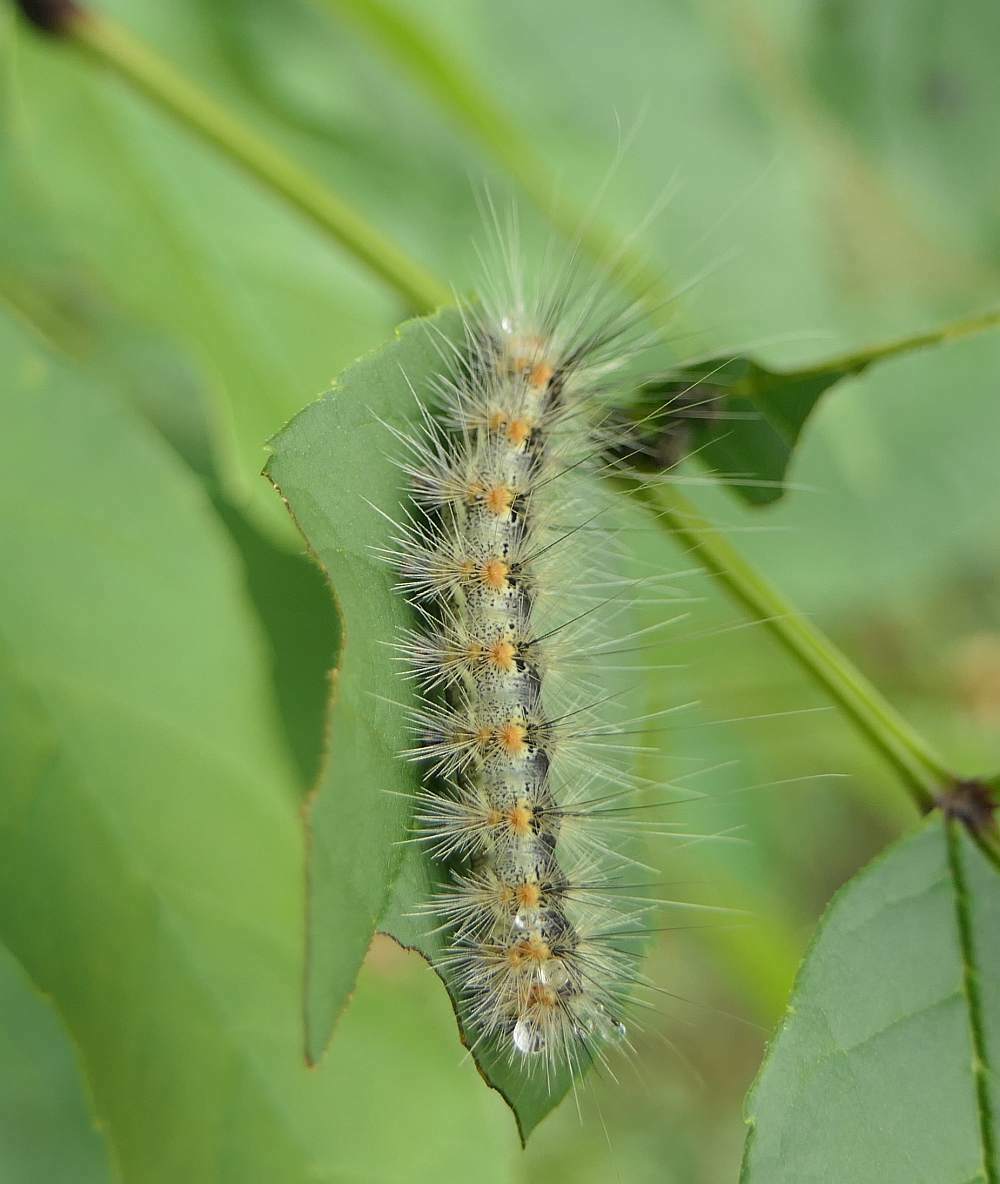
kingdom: Animalia
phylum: Arthropoda
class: Insecta
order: Lepidoptera
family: Erebidae
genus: Hyphantria
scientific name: Hyphantria cunea
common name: American white moth
